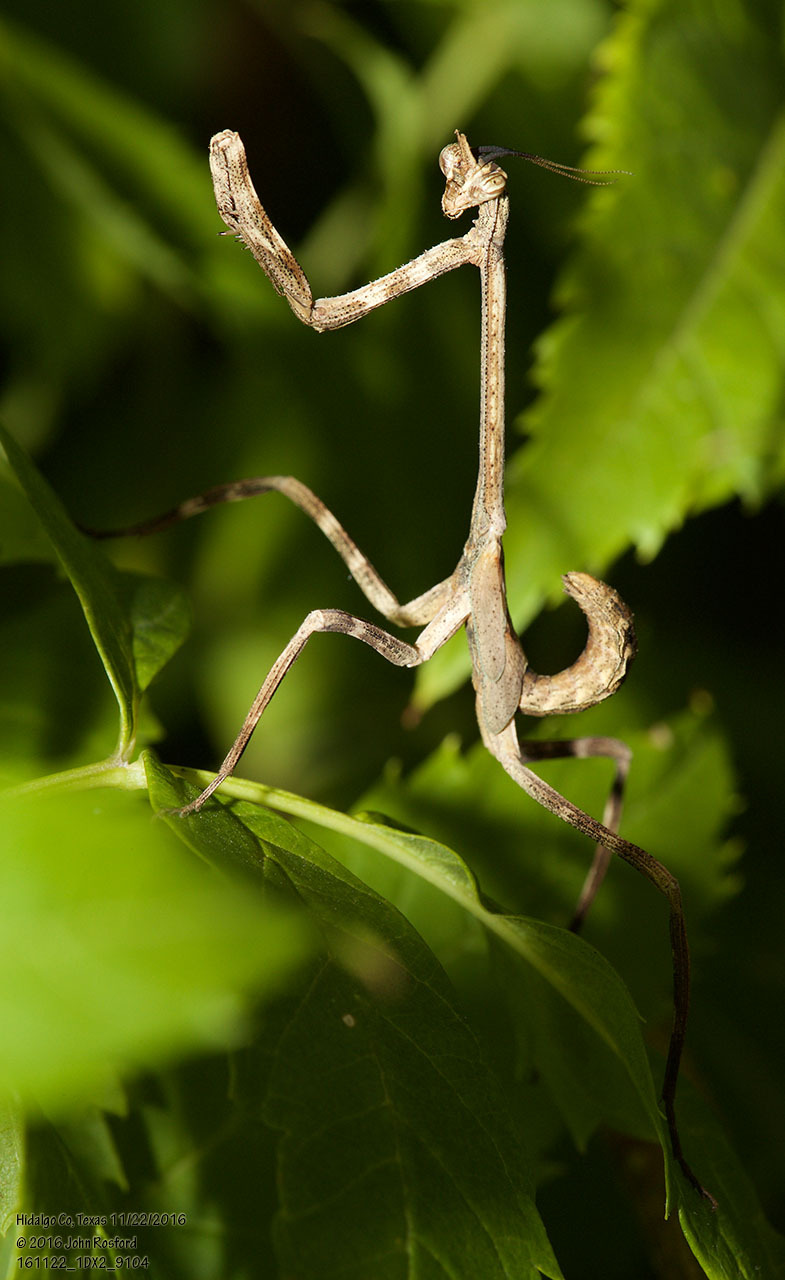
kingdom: Animalia
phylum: Arthropoda
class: Insecta
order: Mantodea
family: Mantidae
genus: Pseudovates
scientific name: Pseudovates chlorophaea
